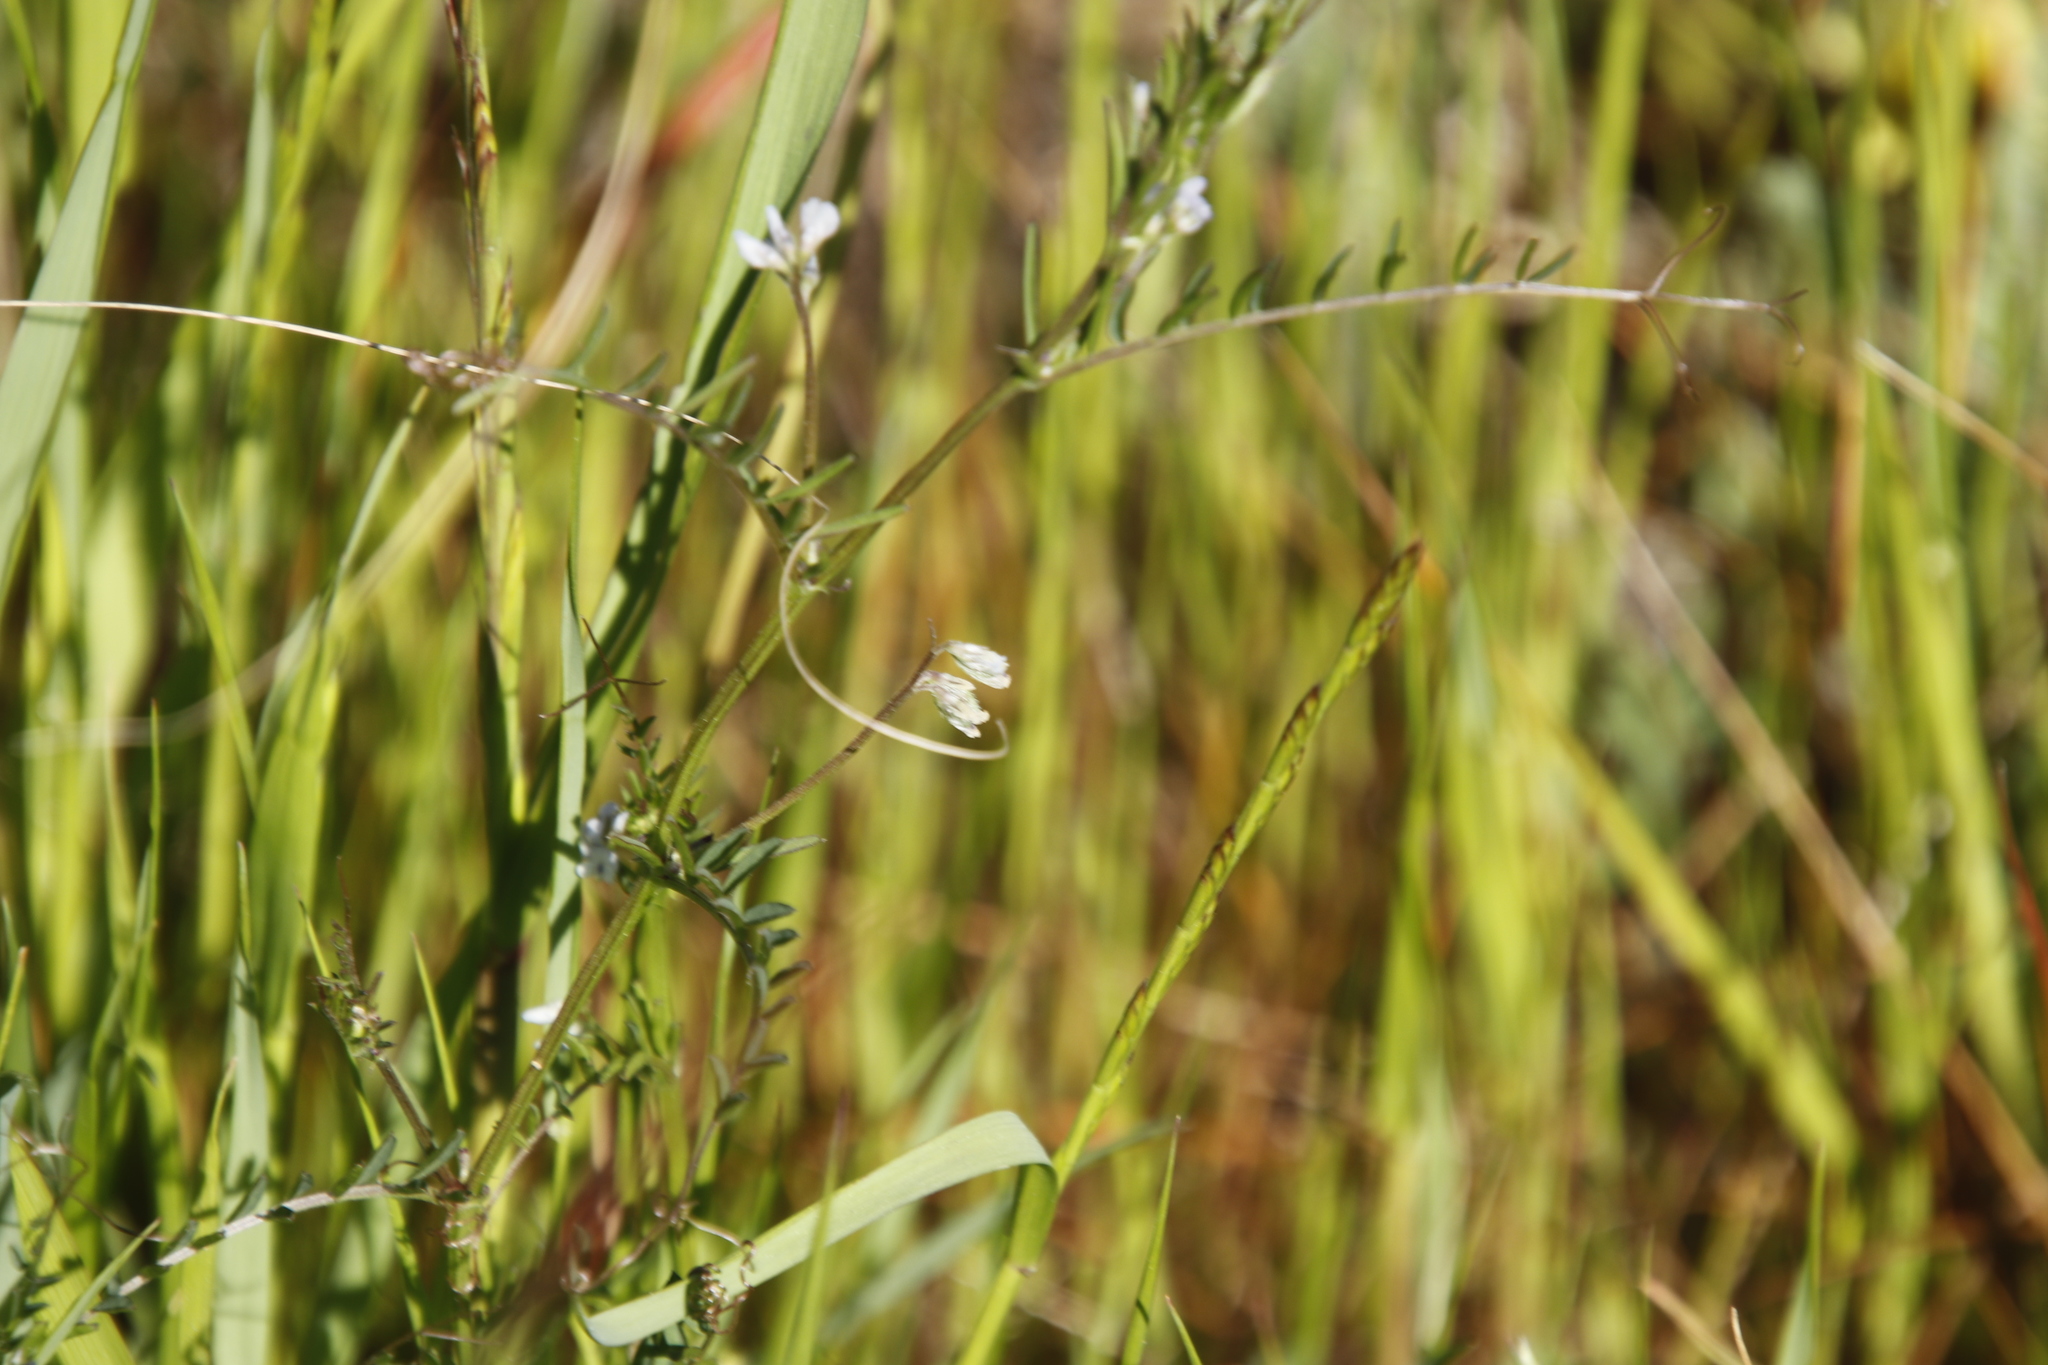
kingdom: Plantae
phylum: Tracheophyta
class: Magnoliopsida
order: Fabales
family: Fabaceae
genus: Vicia
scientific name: Vicia hirsuta
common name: Tiny vetch
